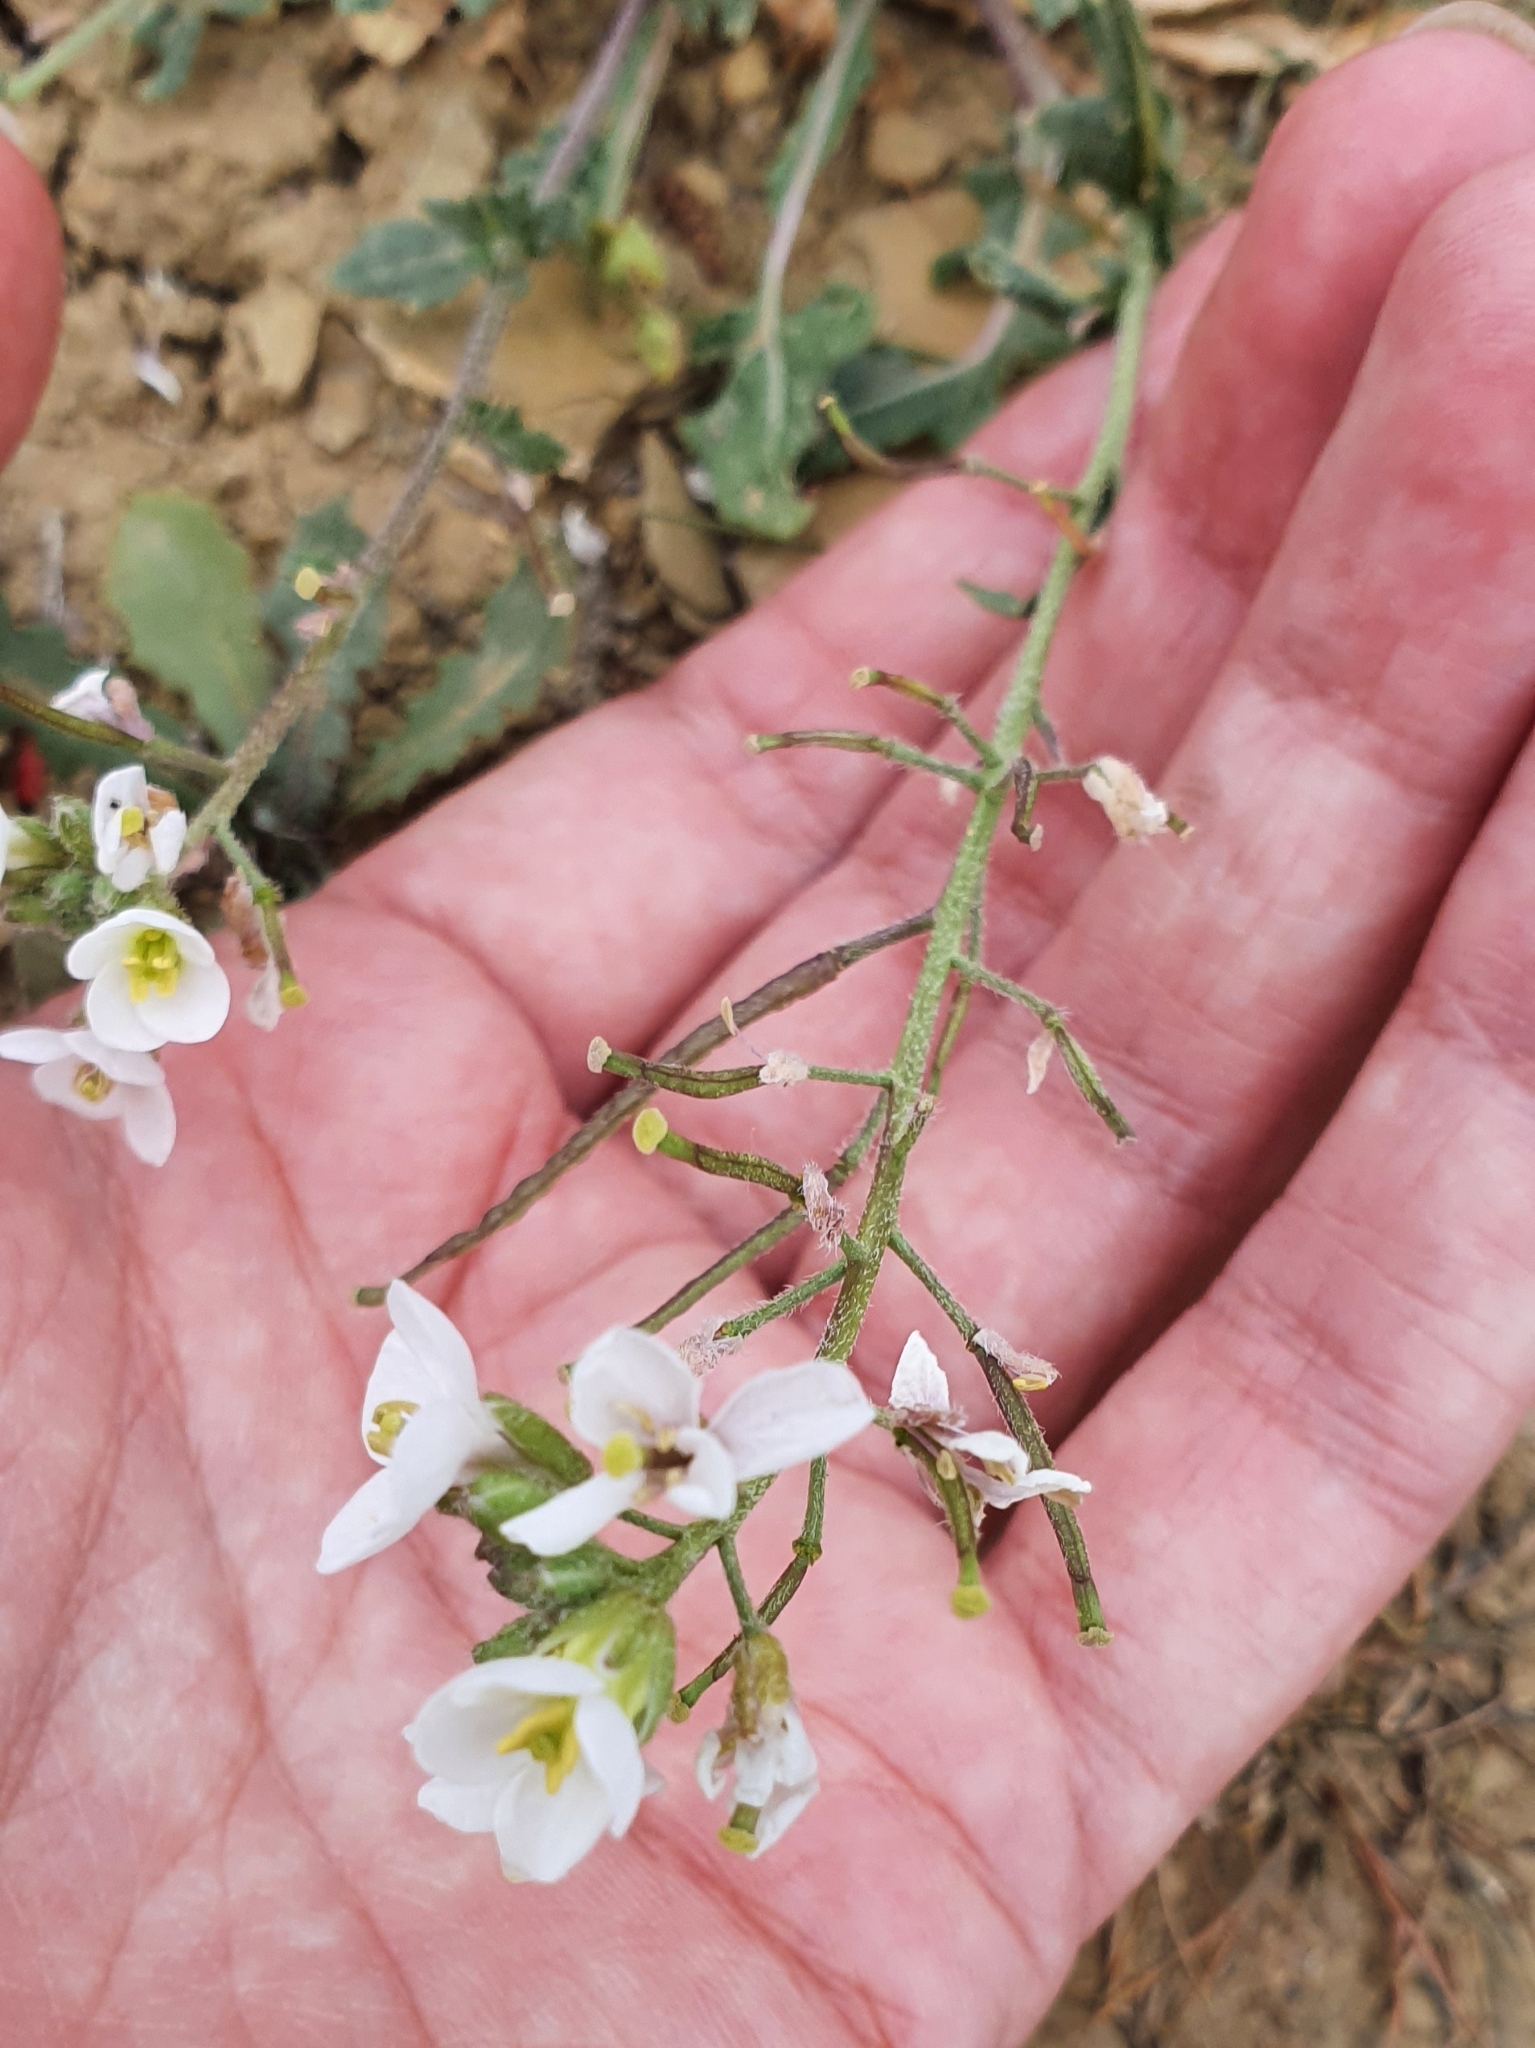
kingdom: Plantae
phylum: Tracheophyta
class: Magnoliopsida
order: Brassicales
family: Brassicaceae
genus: Diplotaxis
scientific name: Diplotaxis erucoides
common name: White rocket
